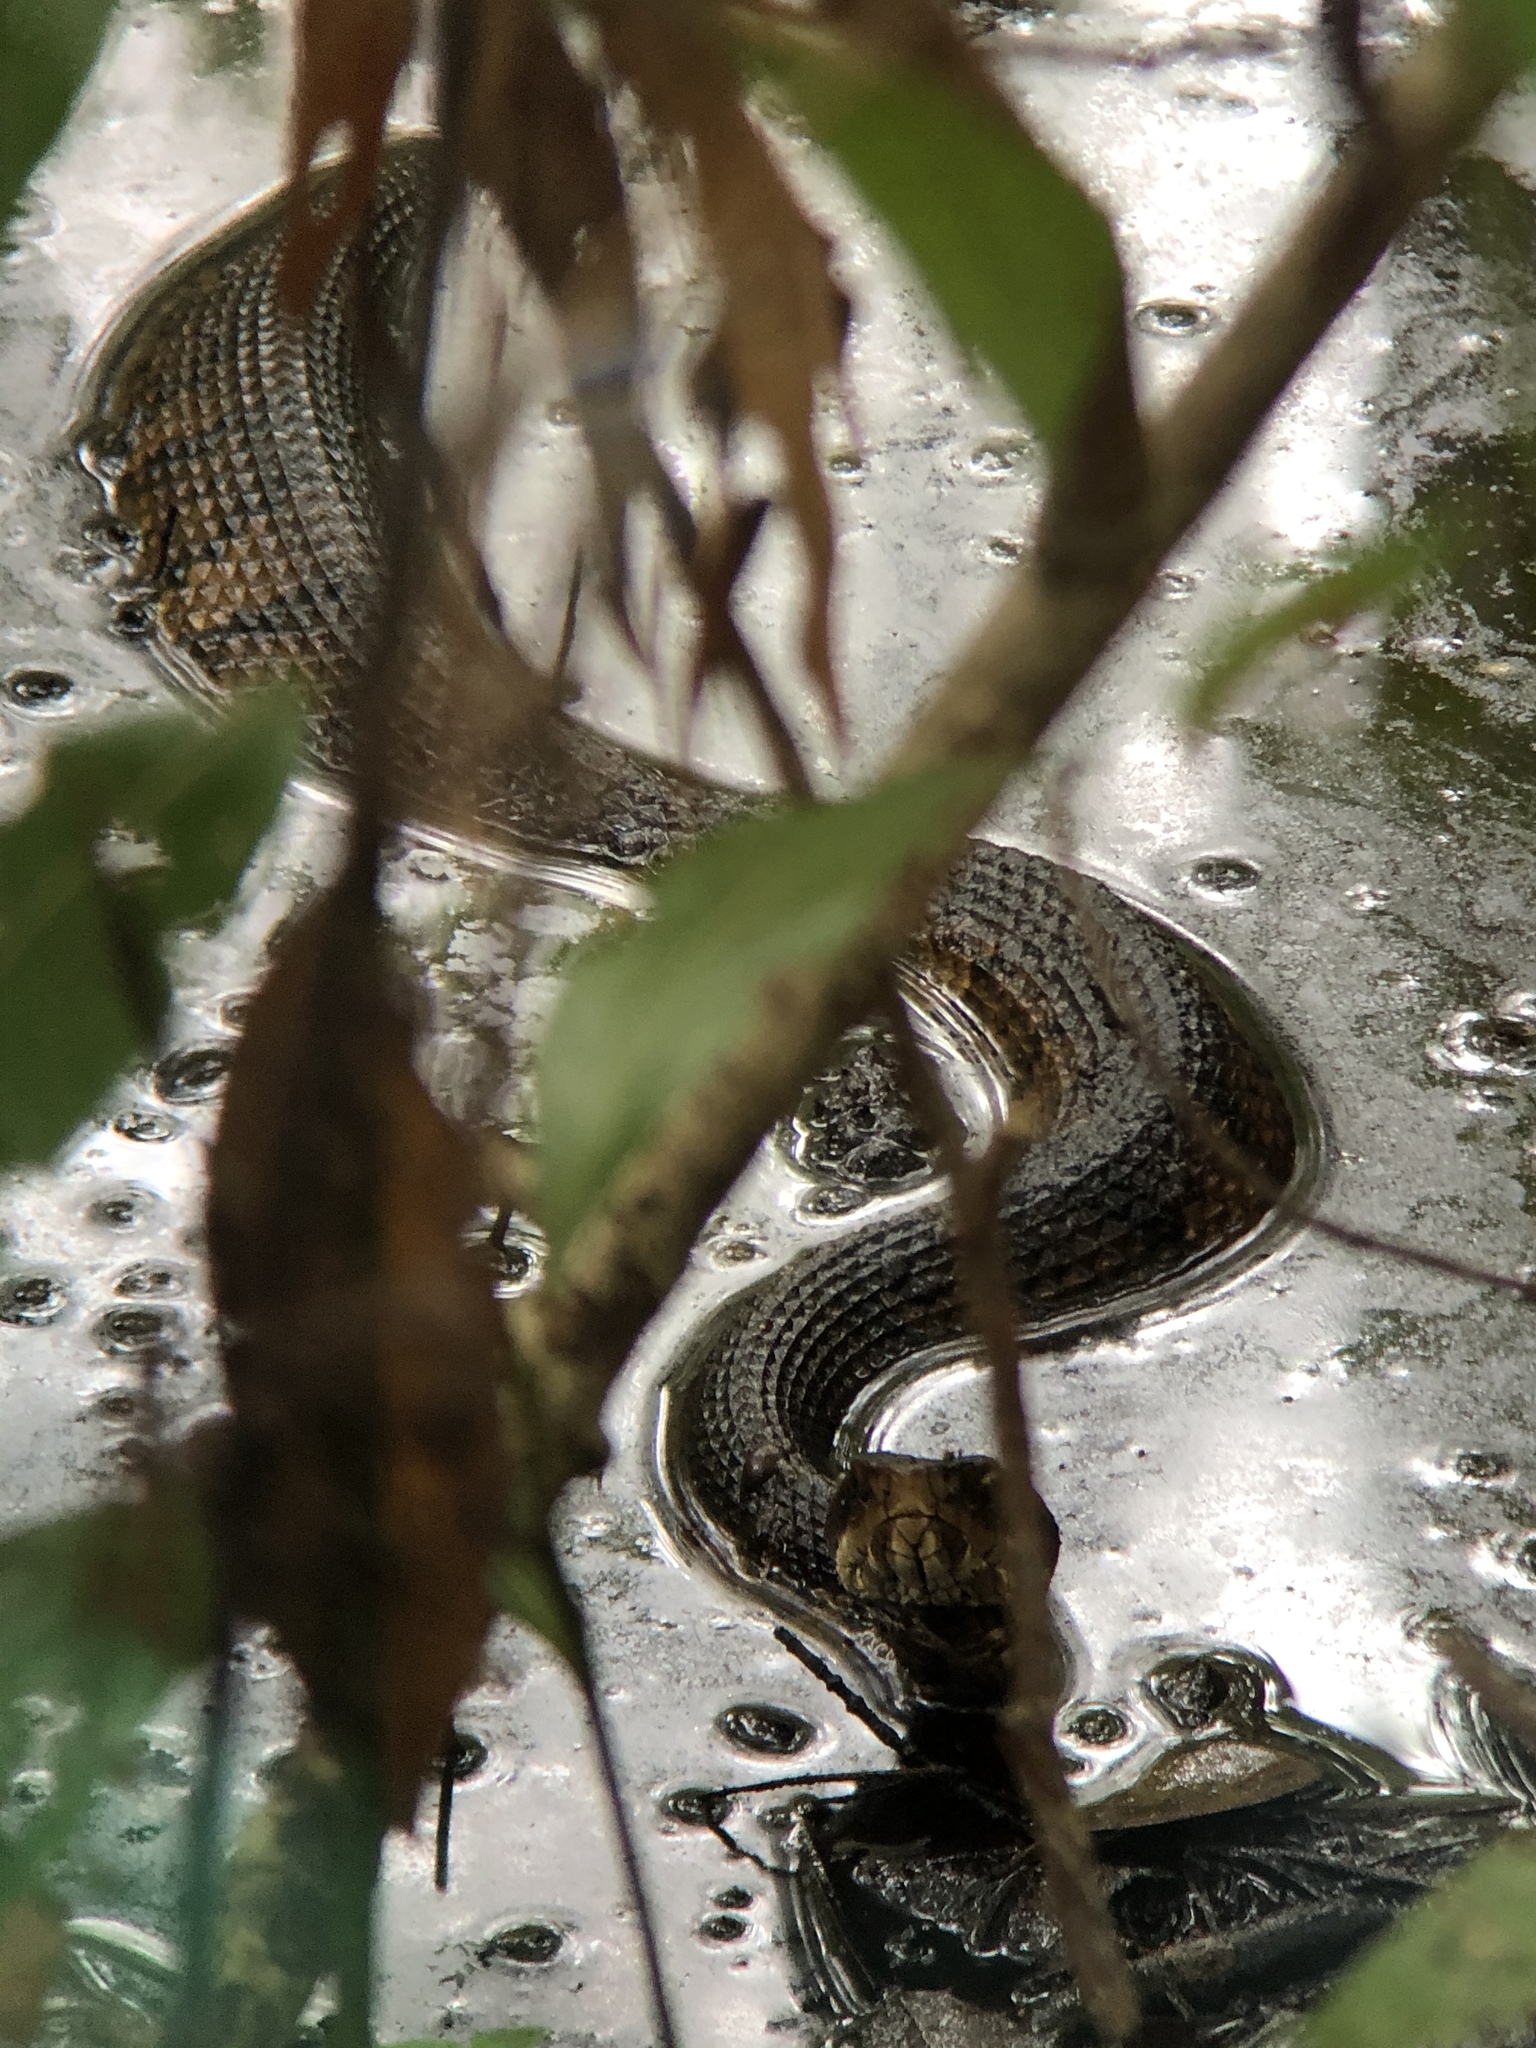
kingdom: Animalia
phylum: Chordata
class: Squamata
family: Viperidae
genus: Agkistrodon
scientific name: Agkistrodon piscivorus
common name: Cottonmouth
